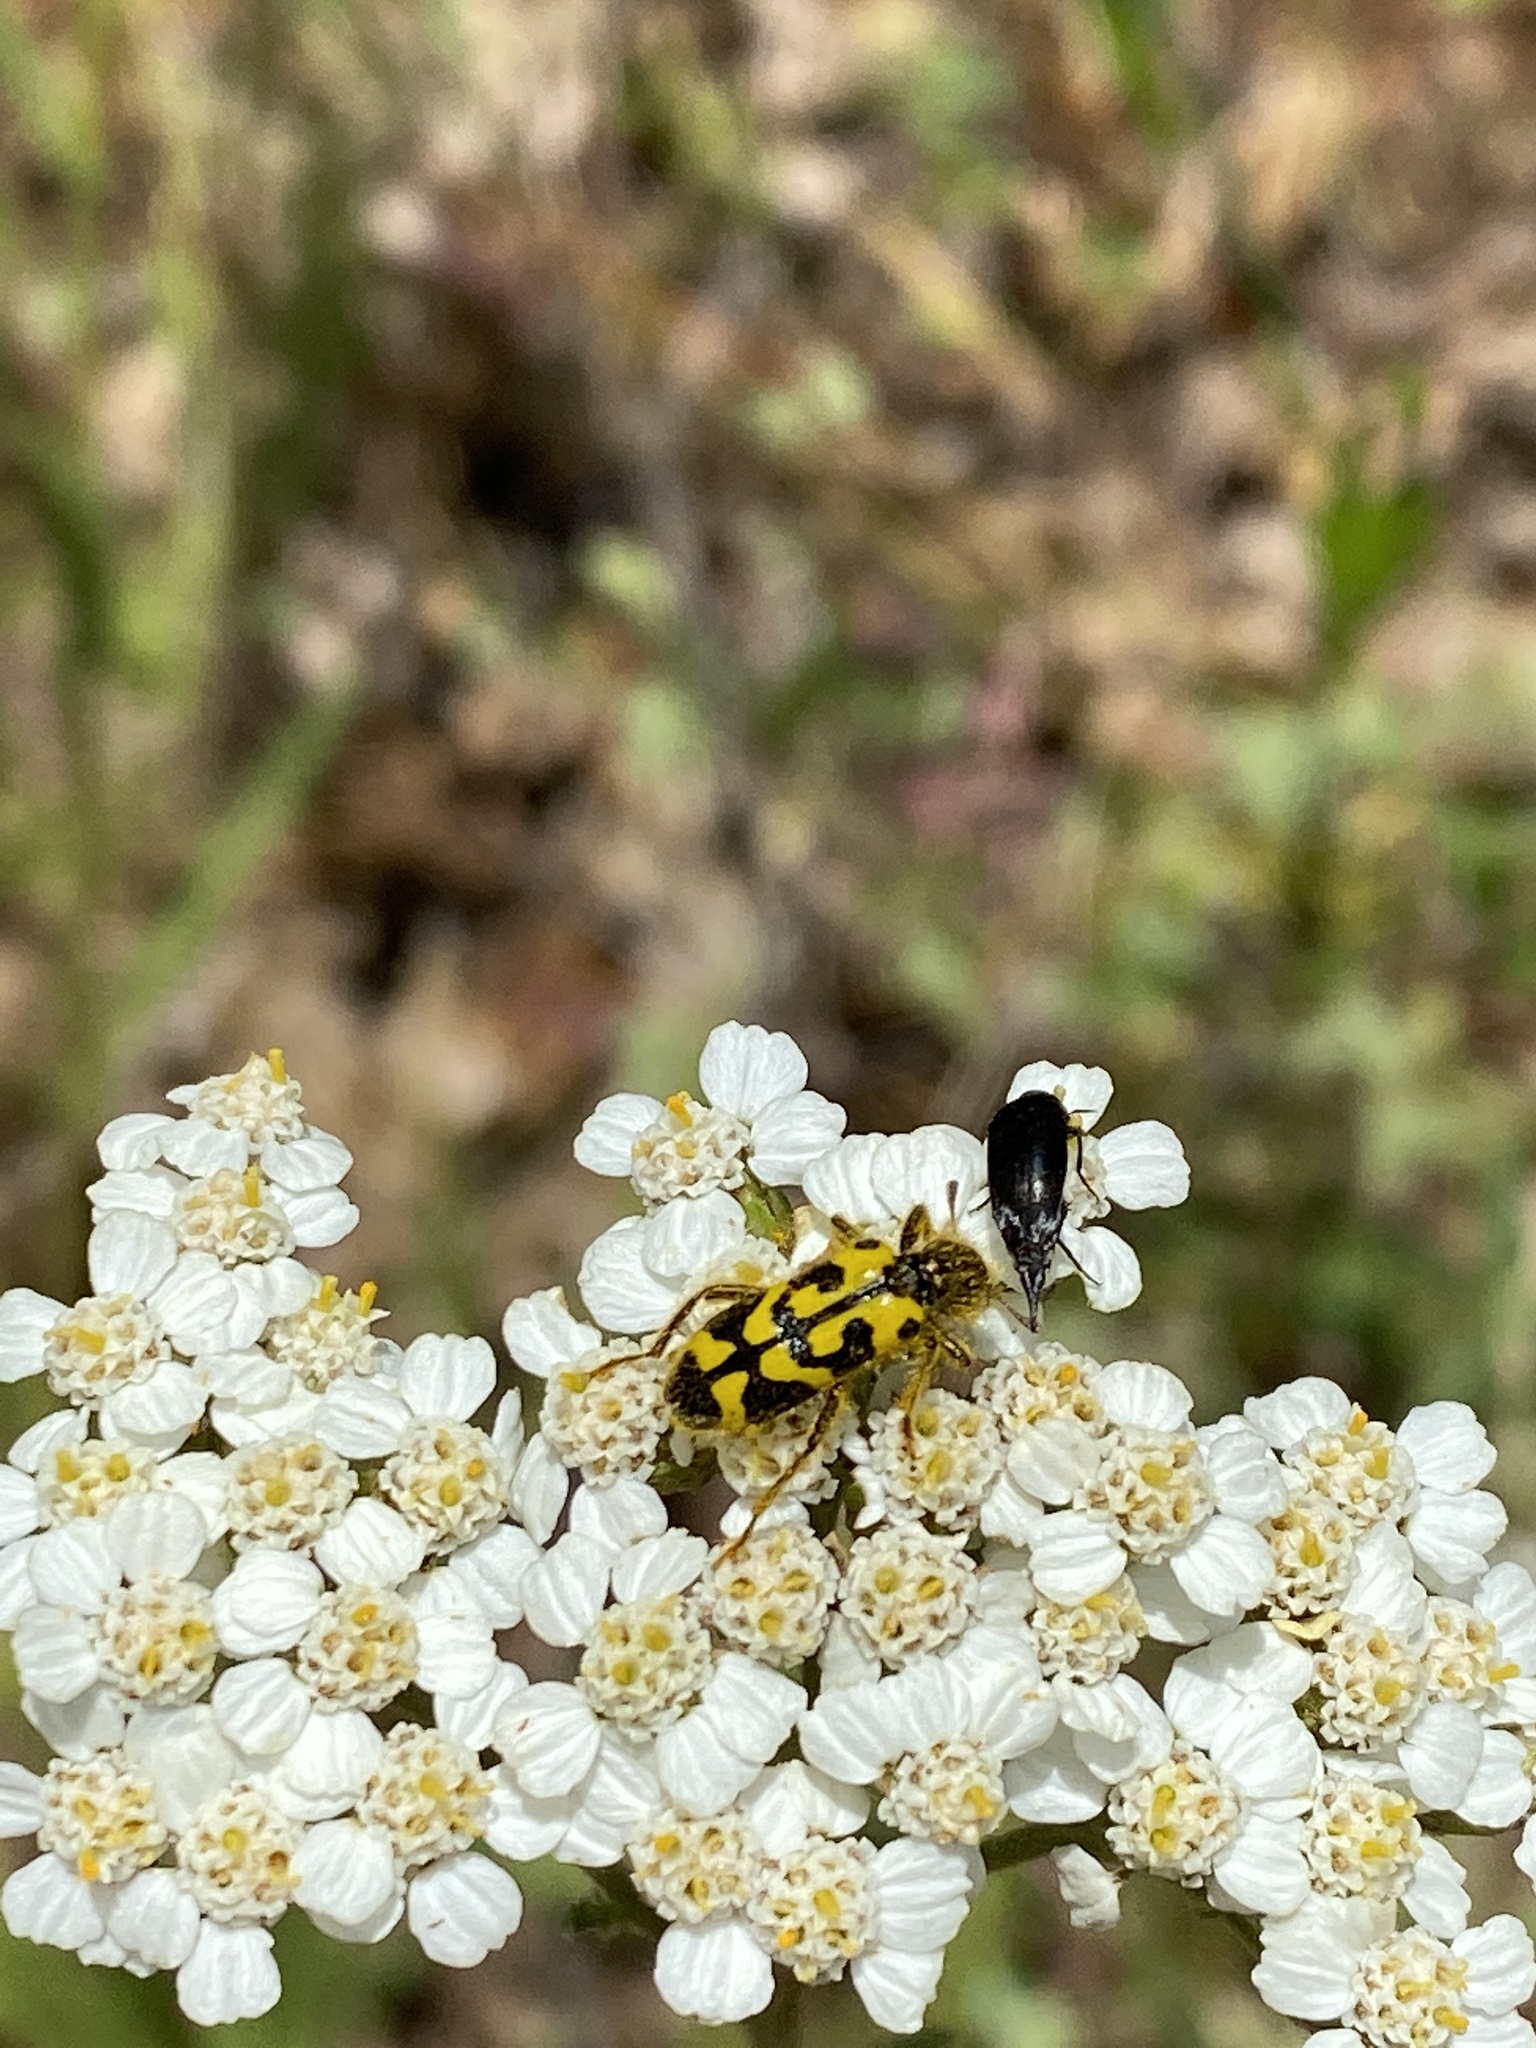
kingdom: Animalia
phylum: Arthropoda
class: Insecta
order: Coleoptera
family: Cleridae
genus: Trichodes
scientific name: Trichodes ornatus
